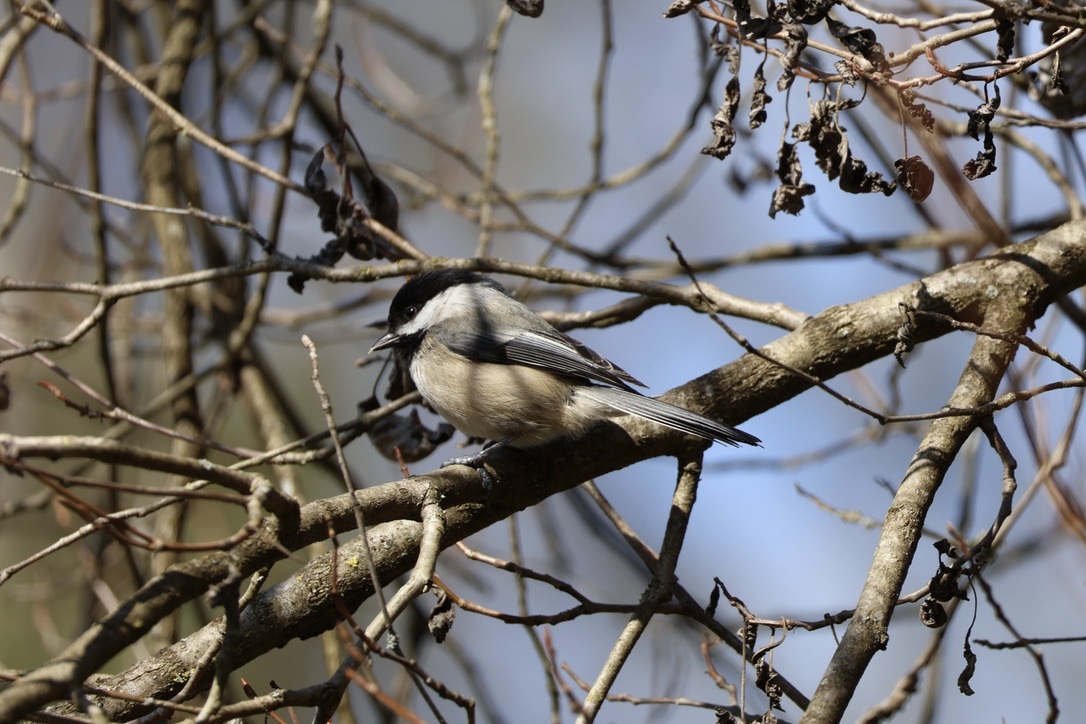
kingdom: Animalia
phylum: Chordata
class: Aves
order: Passeriformes
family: Paridae
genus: Poecile
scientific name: Poecile atricapillus
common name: Black-capped chickadee
